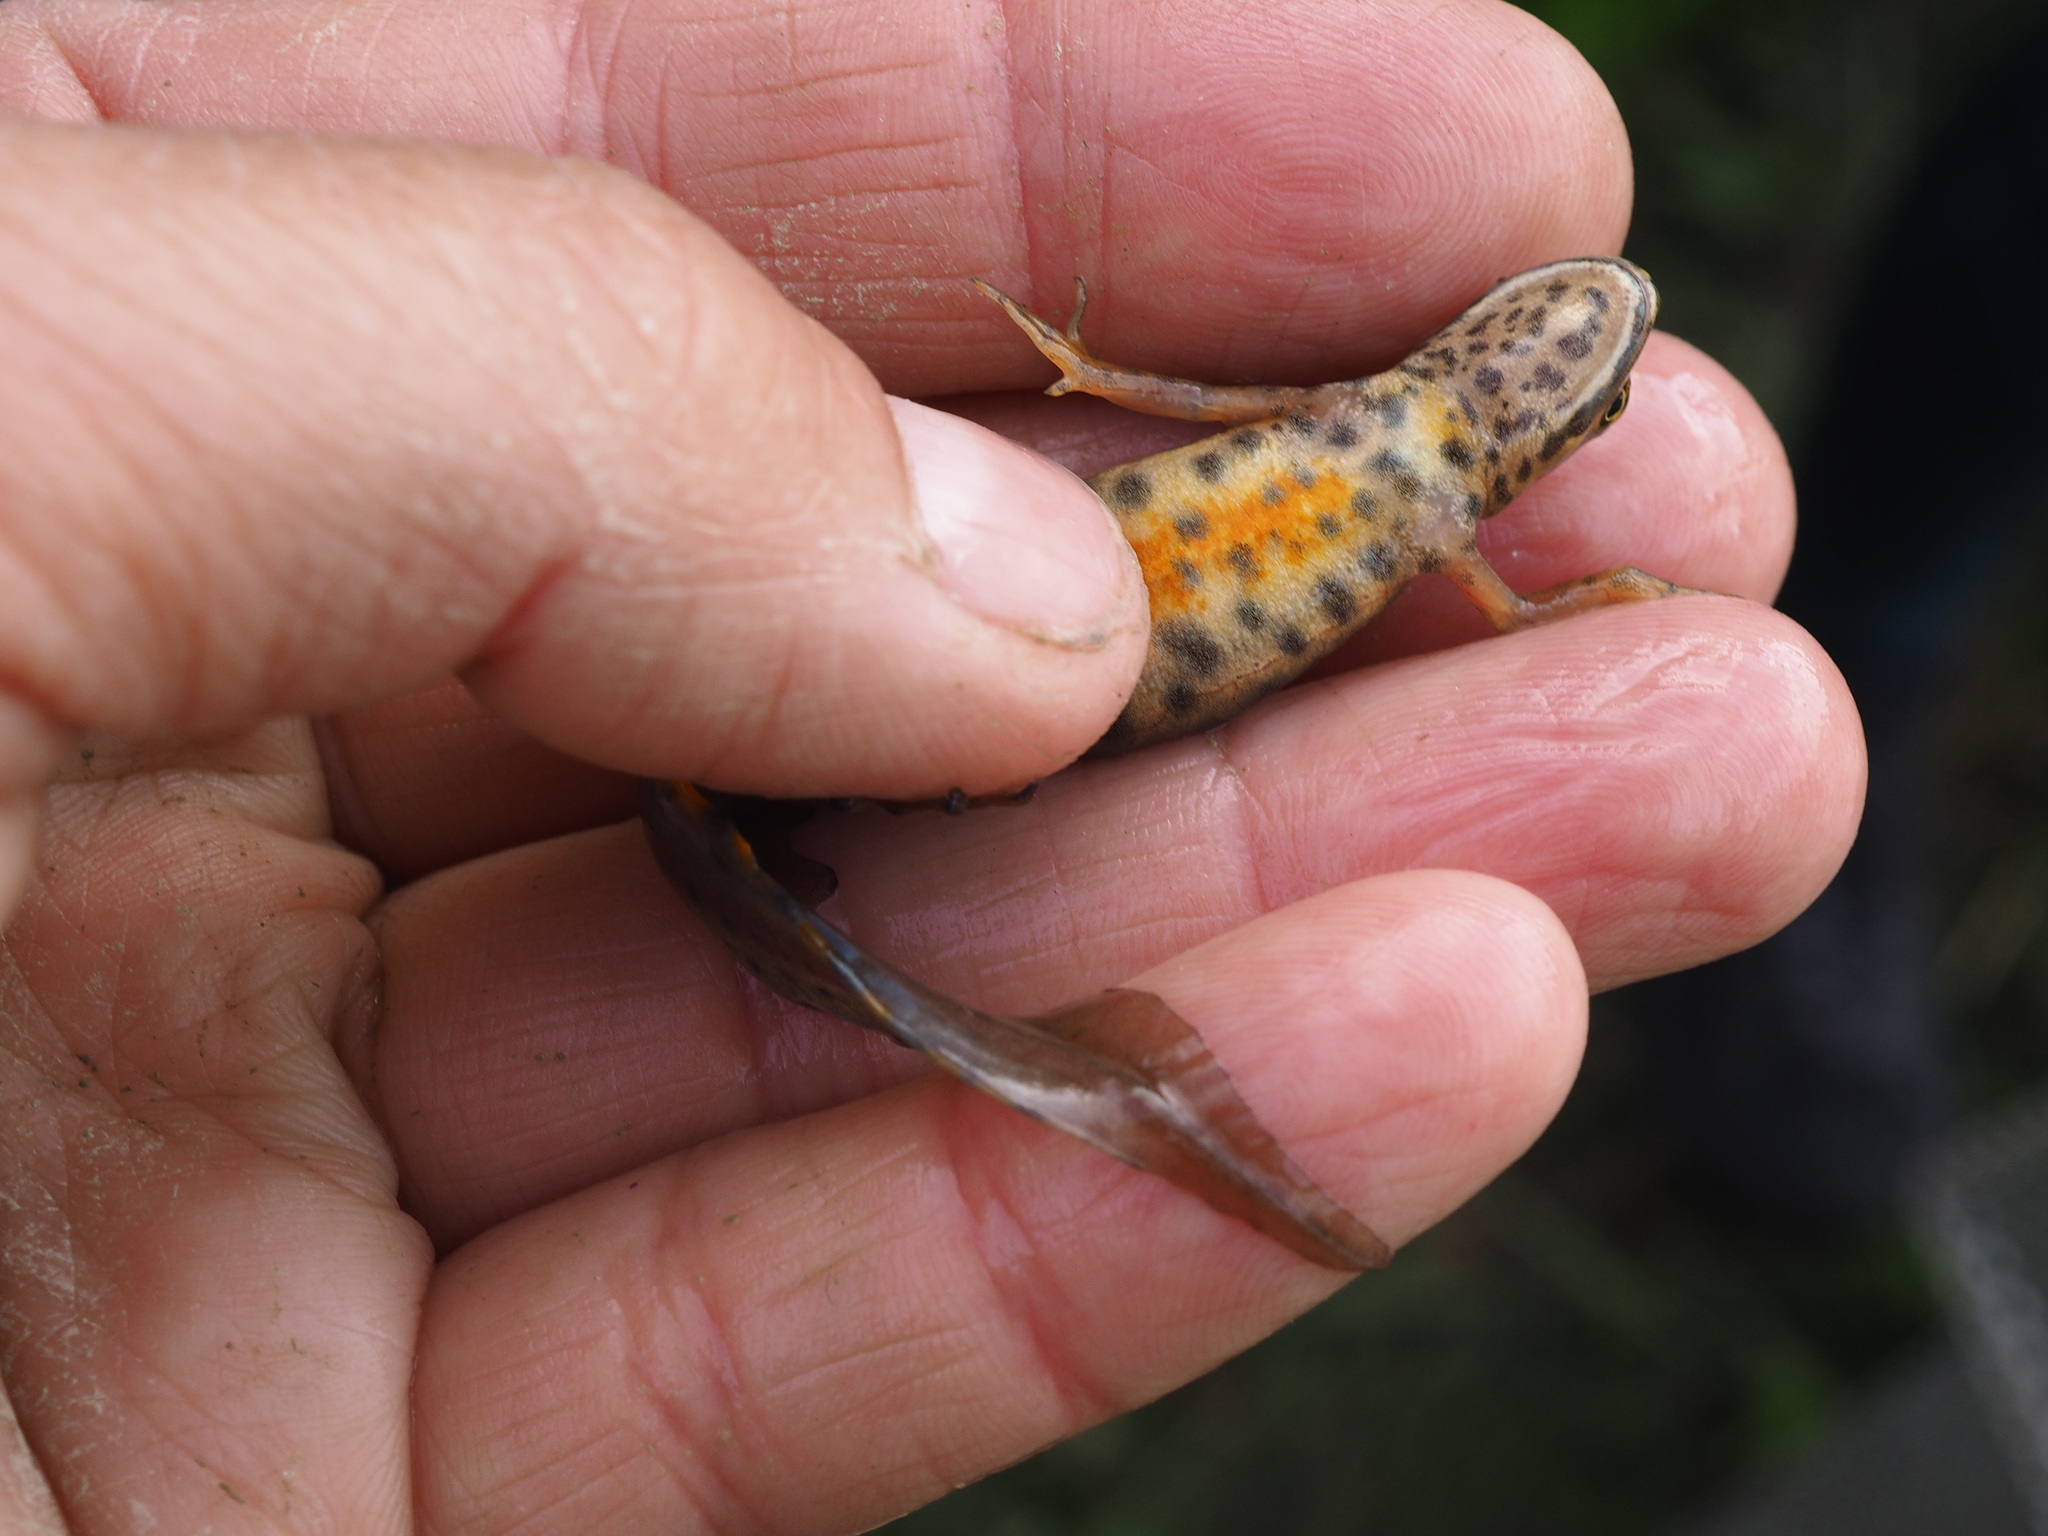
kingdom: Animalia
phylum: Chordata
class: Amphibia
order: Caudata
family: Salamandridae
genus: Lissotriton
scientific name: Lissotriton vulgaris
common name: Smooth newt
